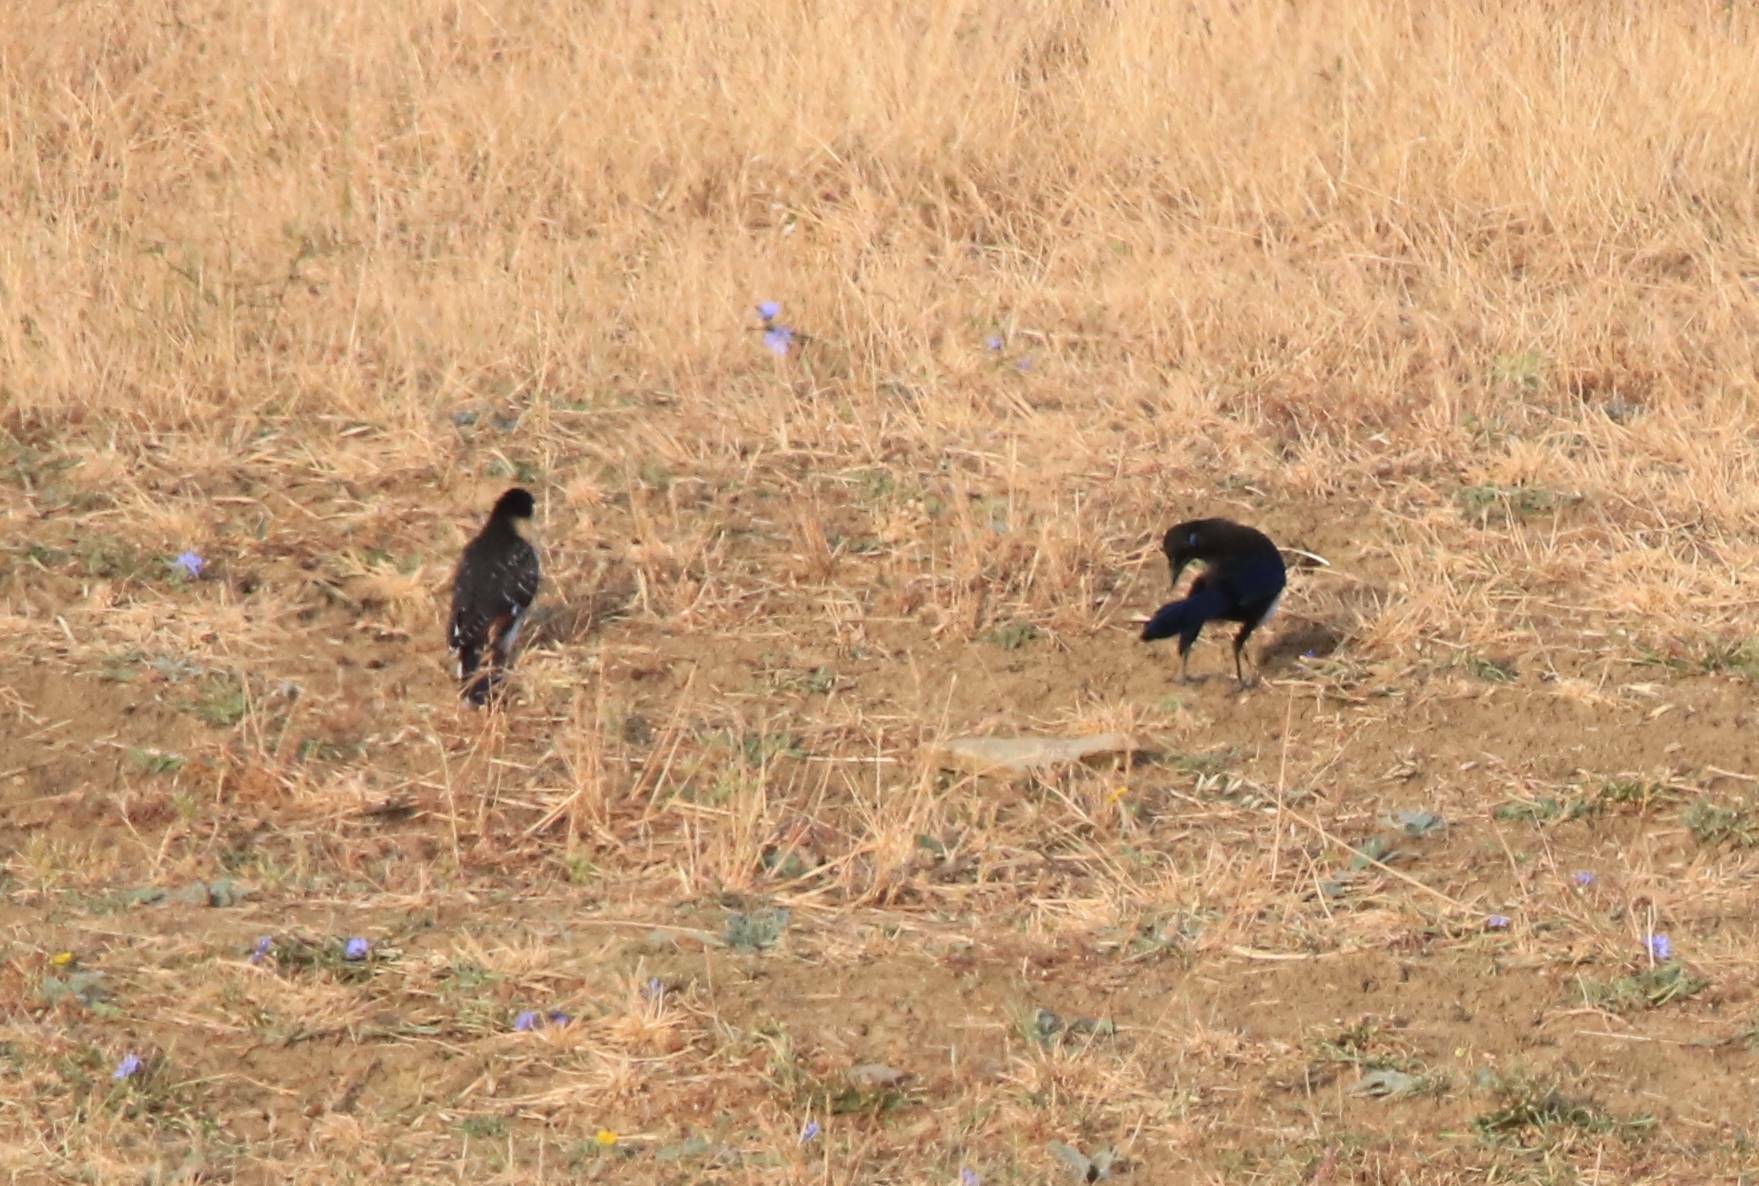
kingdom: Animalia
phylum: Chordata
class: Aves
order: Passeriformes
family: Corvidae
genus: Pica
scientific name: Pica mauritanica
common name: Maghreb magpie
